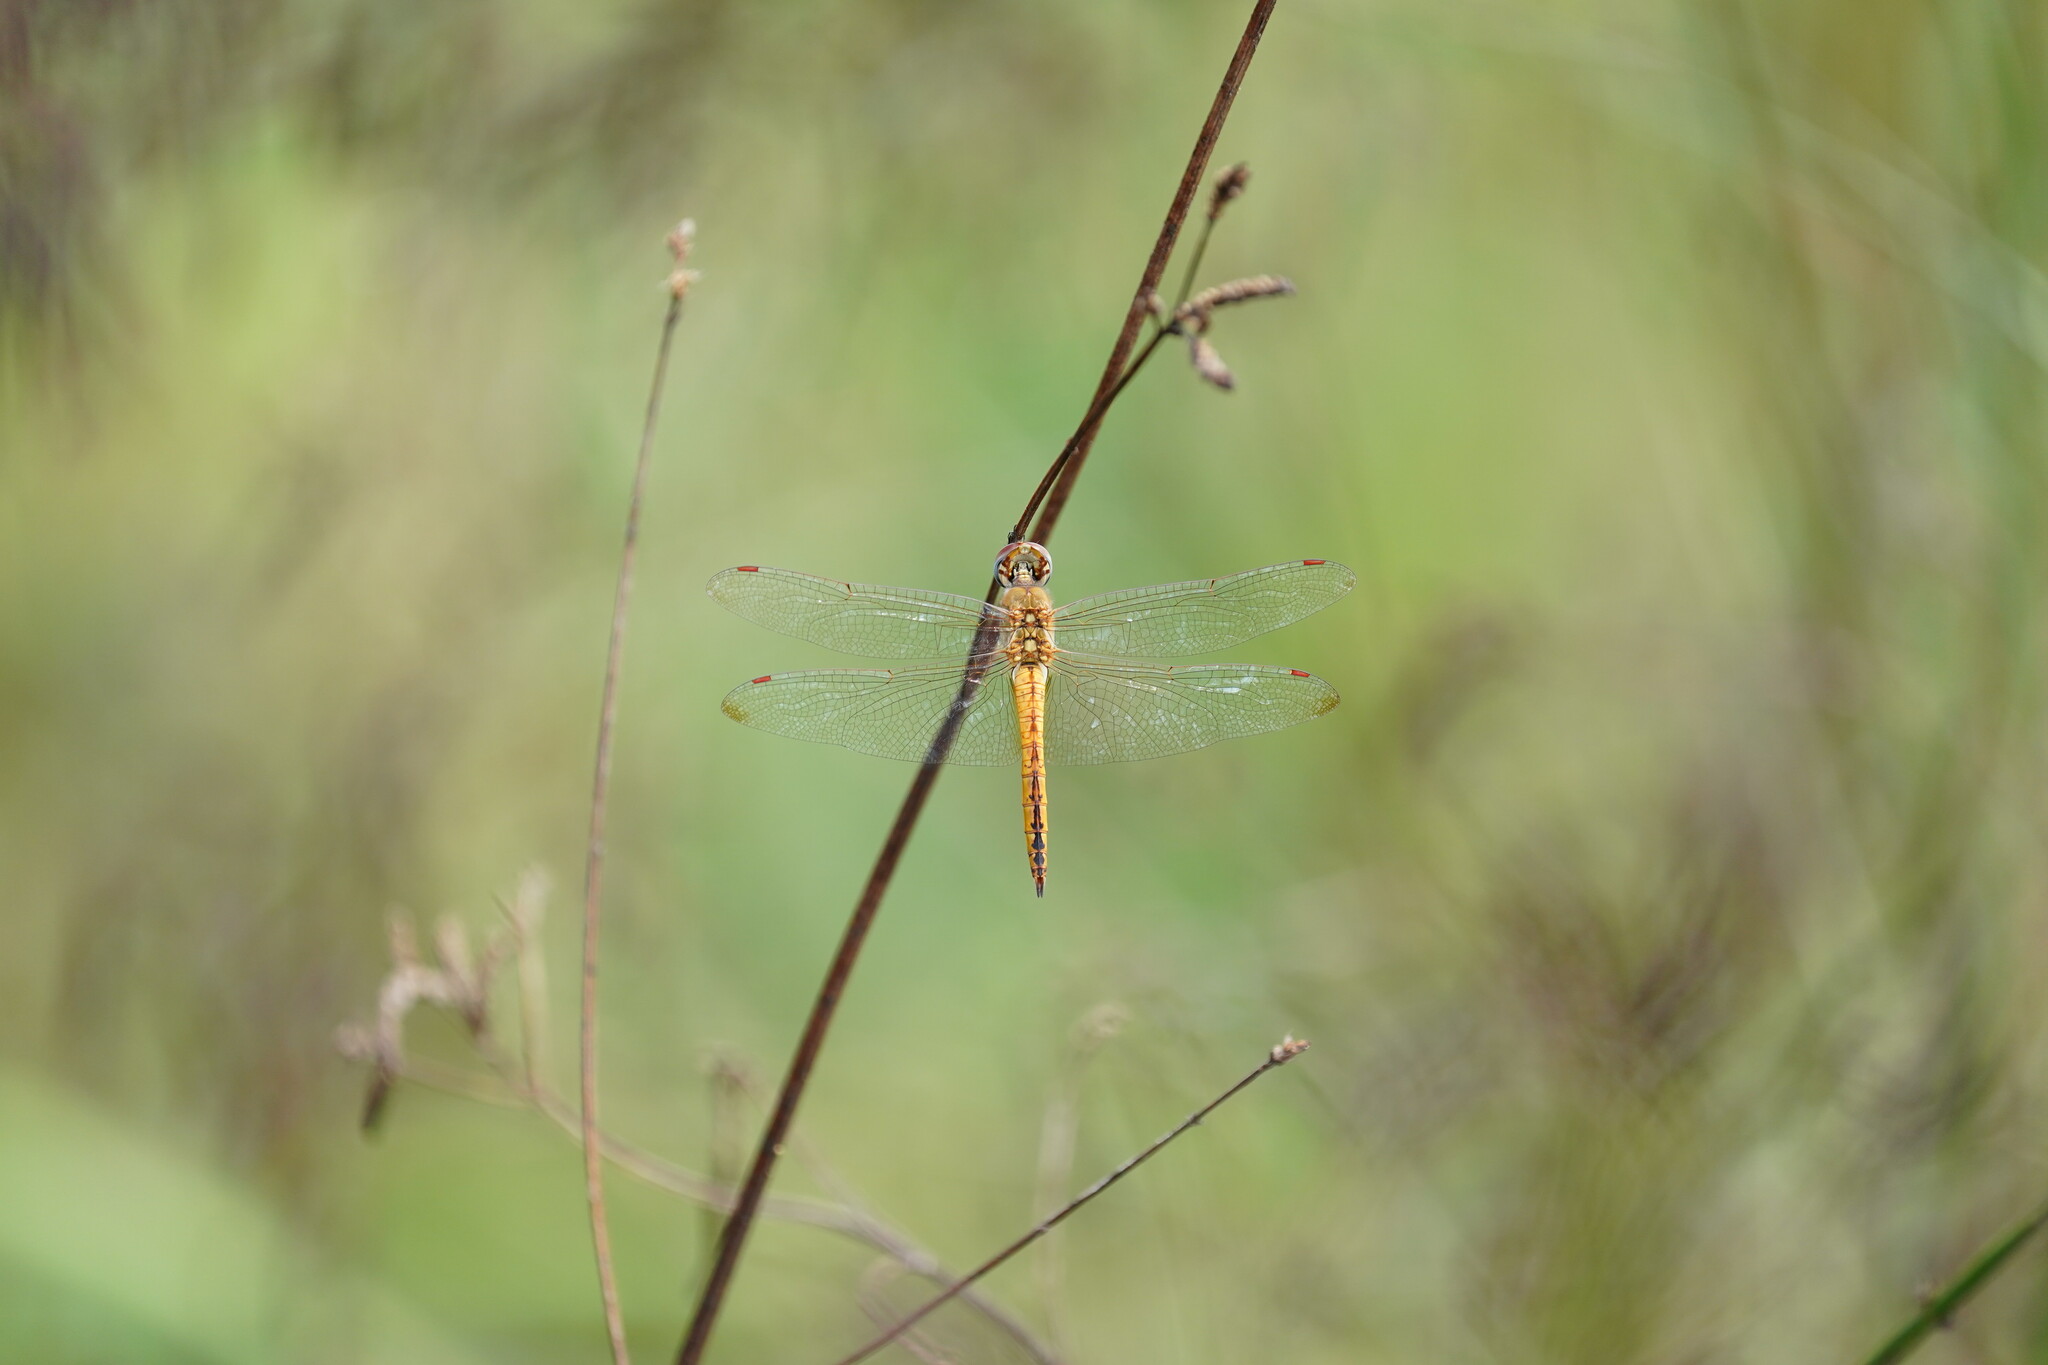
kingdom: Animalia
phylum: Arthropoda
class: Insecta
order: Odonata
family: Libellulidae
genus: Pantala
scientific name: Pantala flavescens
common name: Wandering glider
